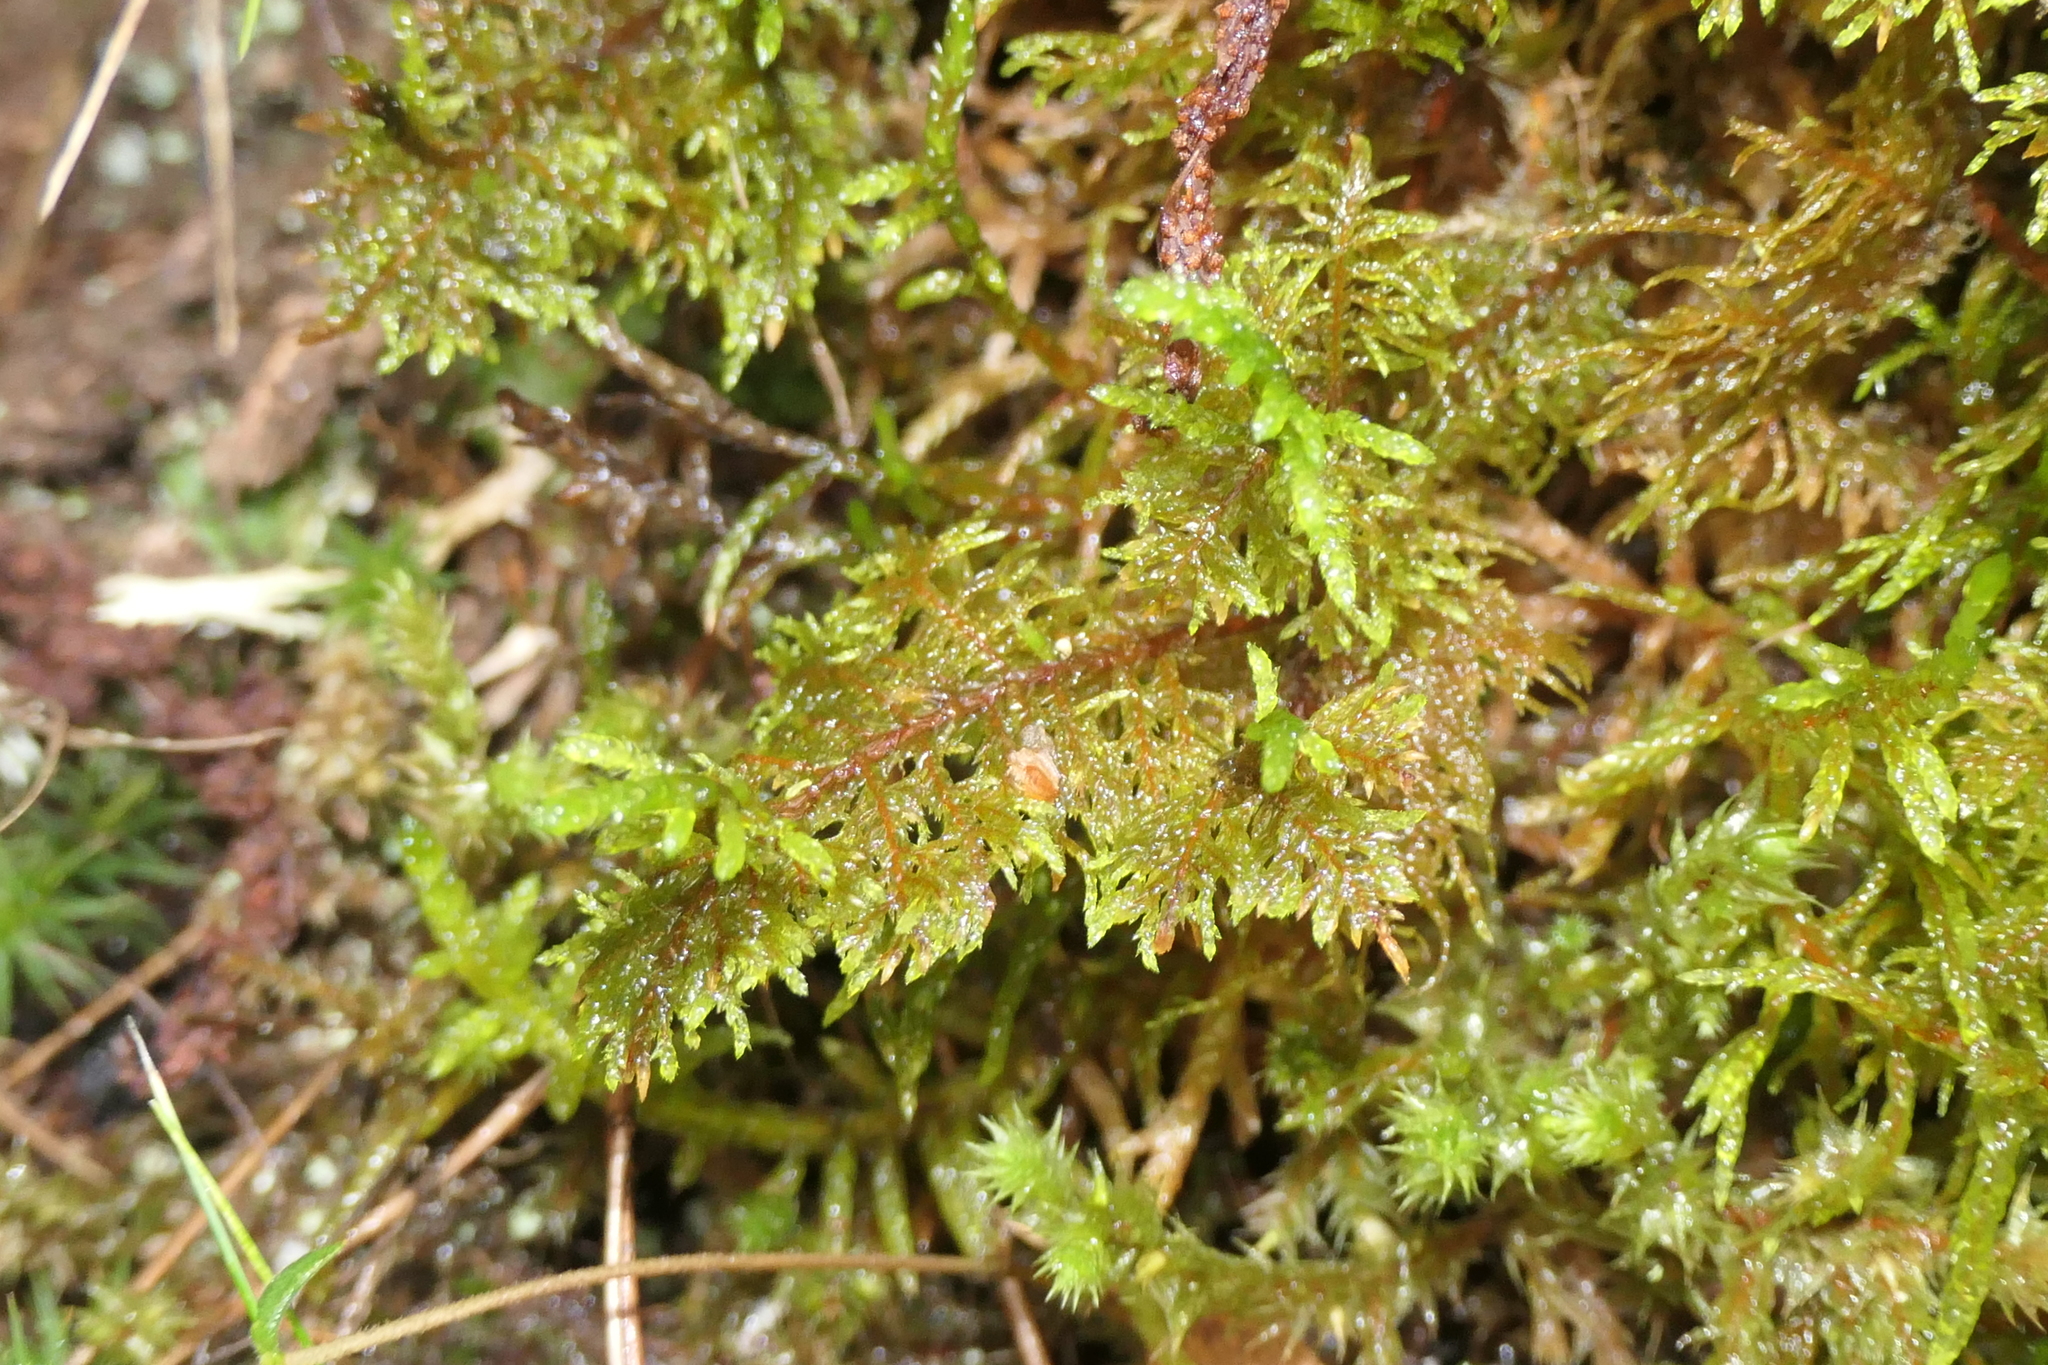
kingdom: Plantae
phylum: Bryophyta
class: Bryopsida
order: Hypnales
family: Hylocomiaceae
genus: Hylocomium
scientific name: Hylocomium splendens
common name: Stairstep moss
